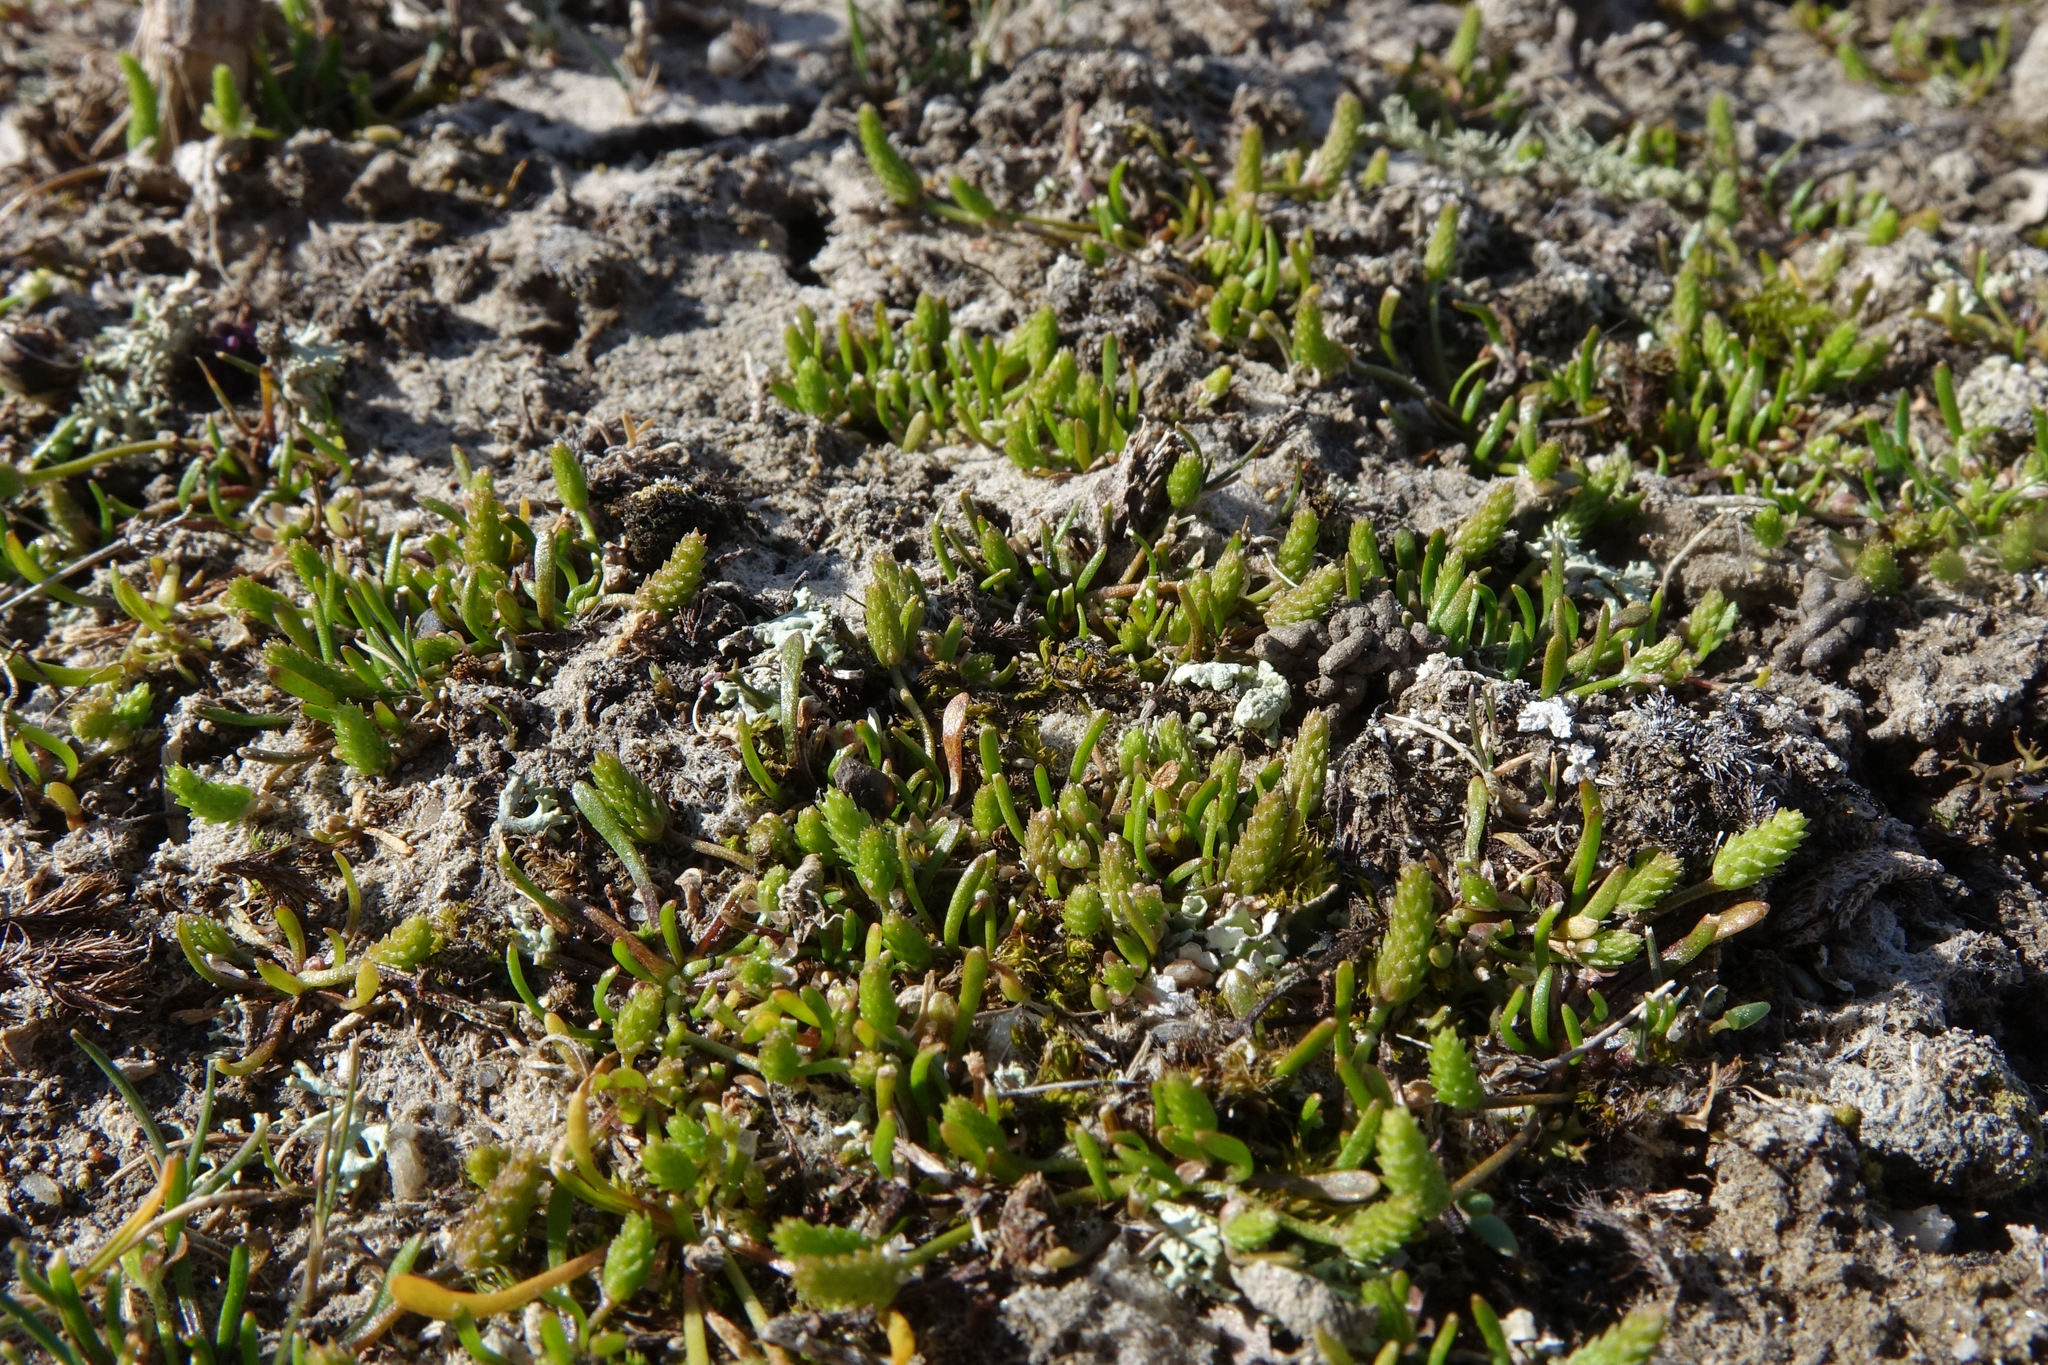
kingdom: Plantae
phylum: Tracheophyta
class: Magnoliopsida
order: Ranunculales
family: Ranunculaceae
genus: Myosurus
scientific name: Myosurus minimus
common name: Mousetail
